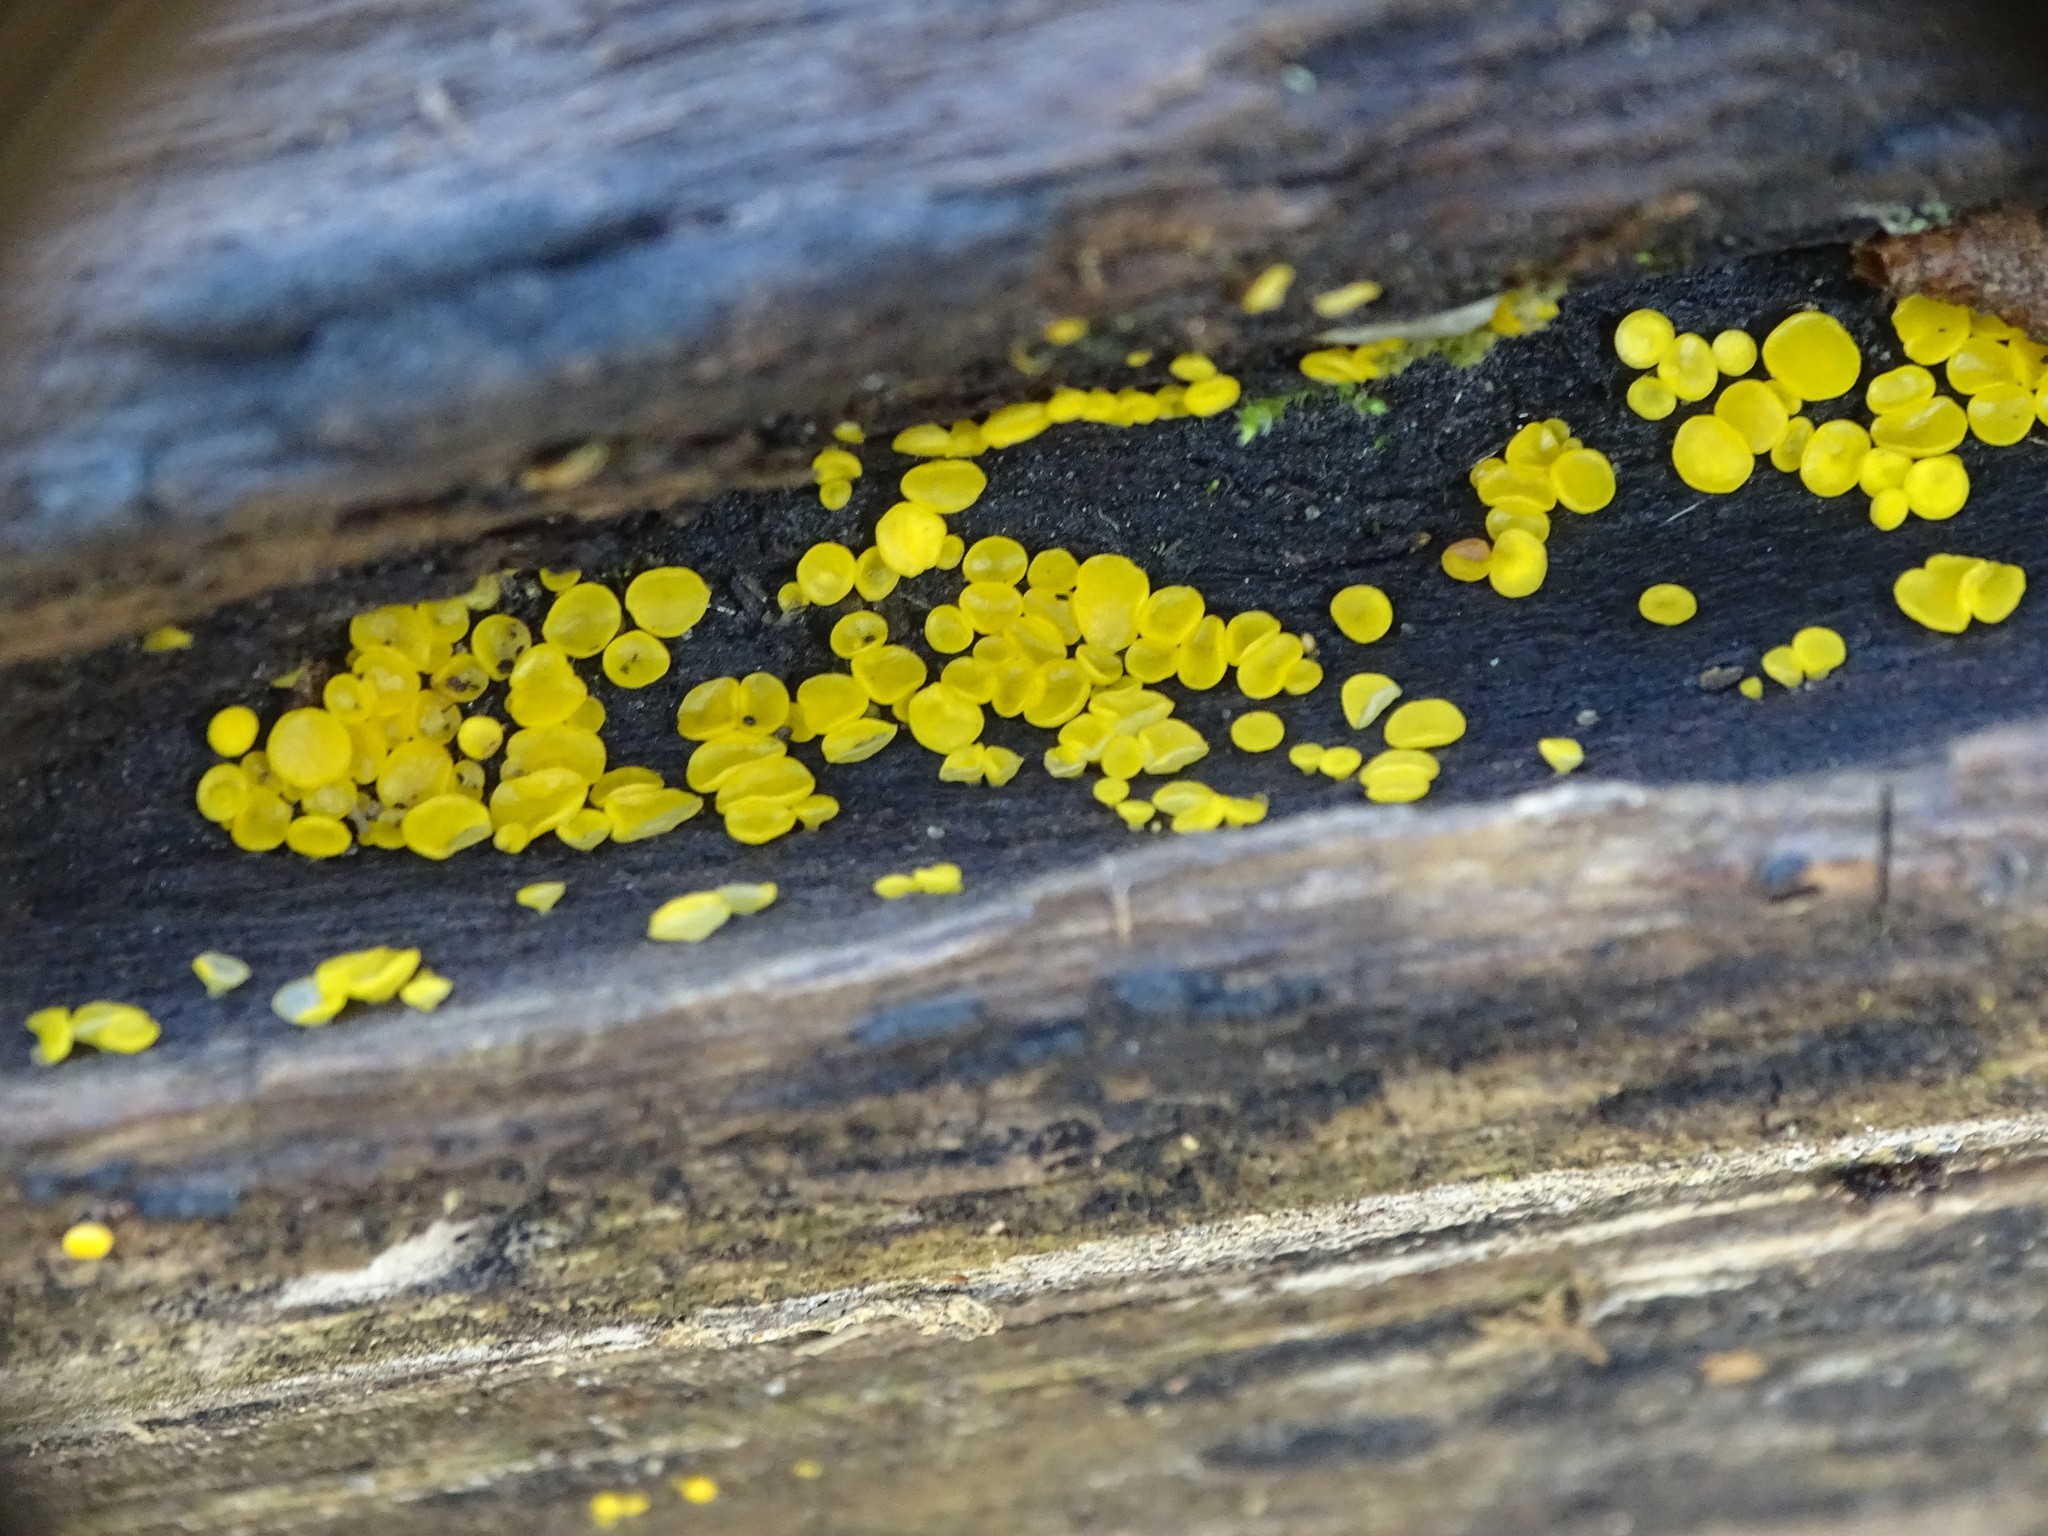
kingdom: Fungi
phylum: Ascomycota
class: Leotiomycetes
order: Helotiales
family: Pezizellaceae
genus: Calycina
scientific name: Calycina citrina
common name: Yellow fairy cups
